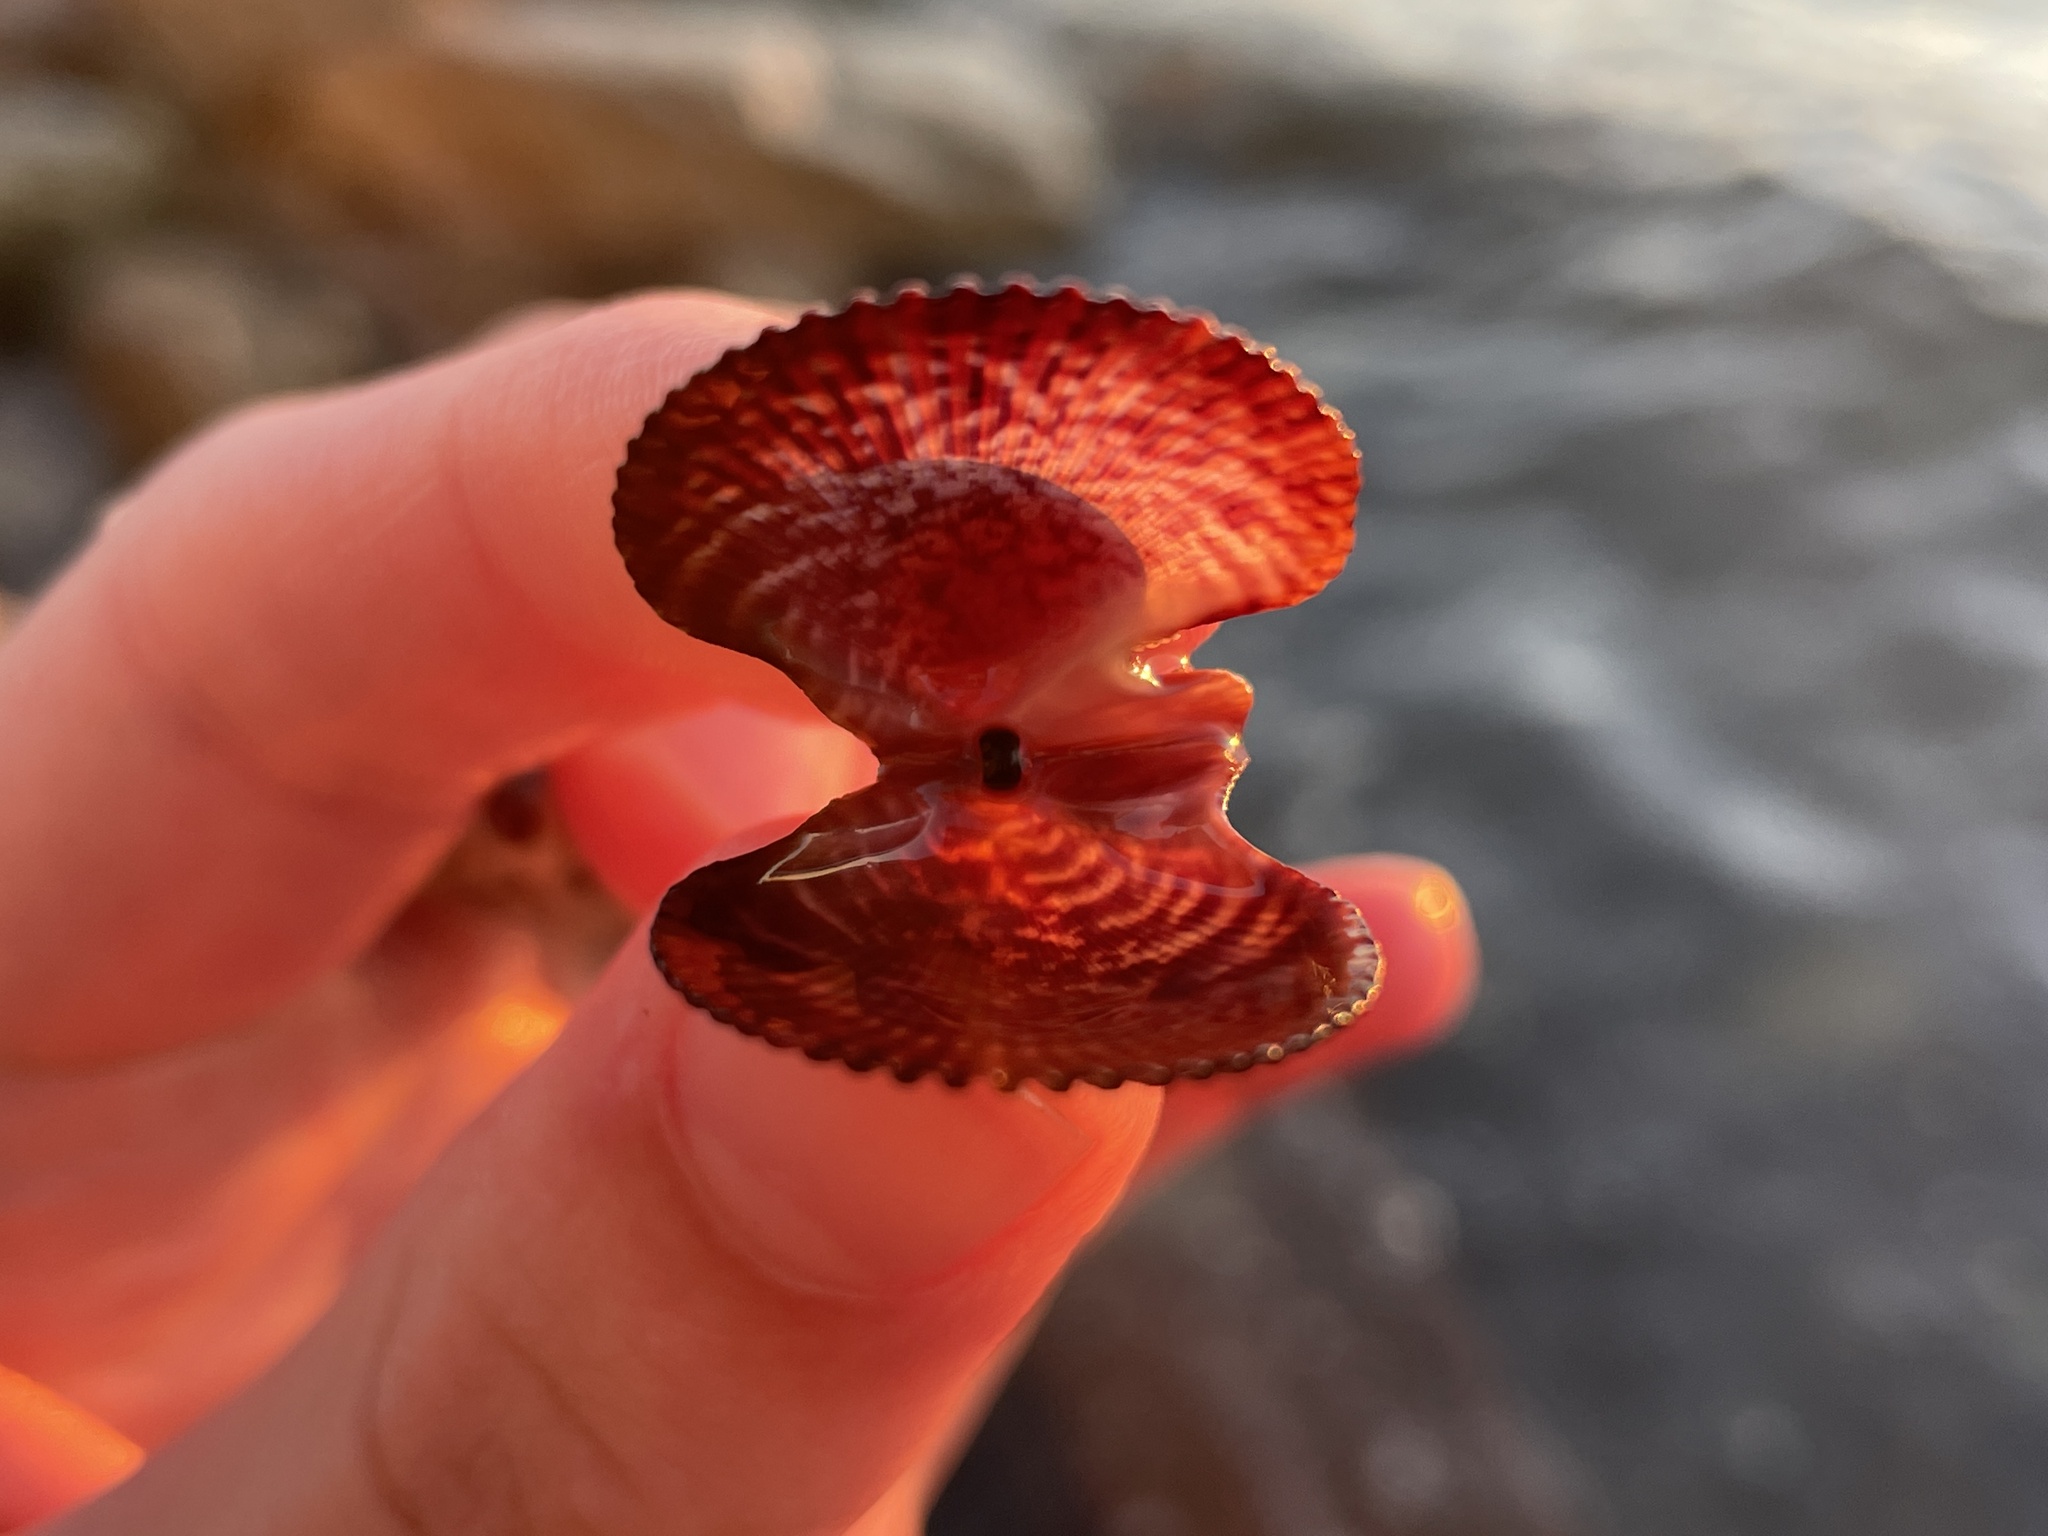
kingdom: Animalia
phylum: Mollusca
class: Bivalvia
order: Pectinida
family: Pectinidae
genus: Mimachlamys
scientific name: Mimachlamys varia
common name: Variegated scallop
